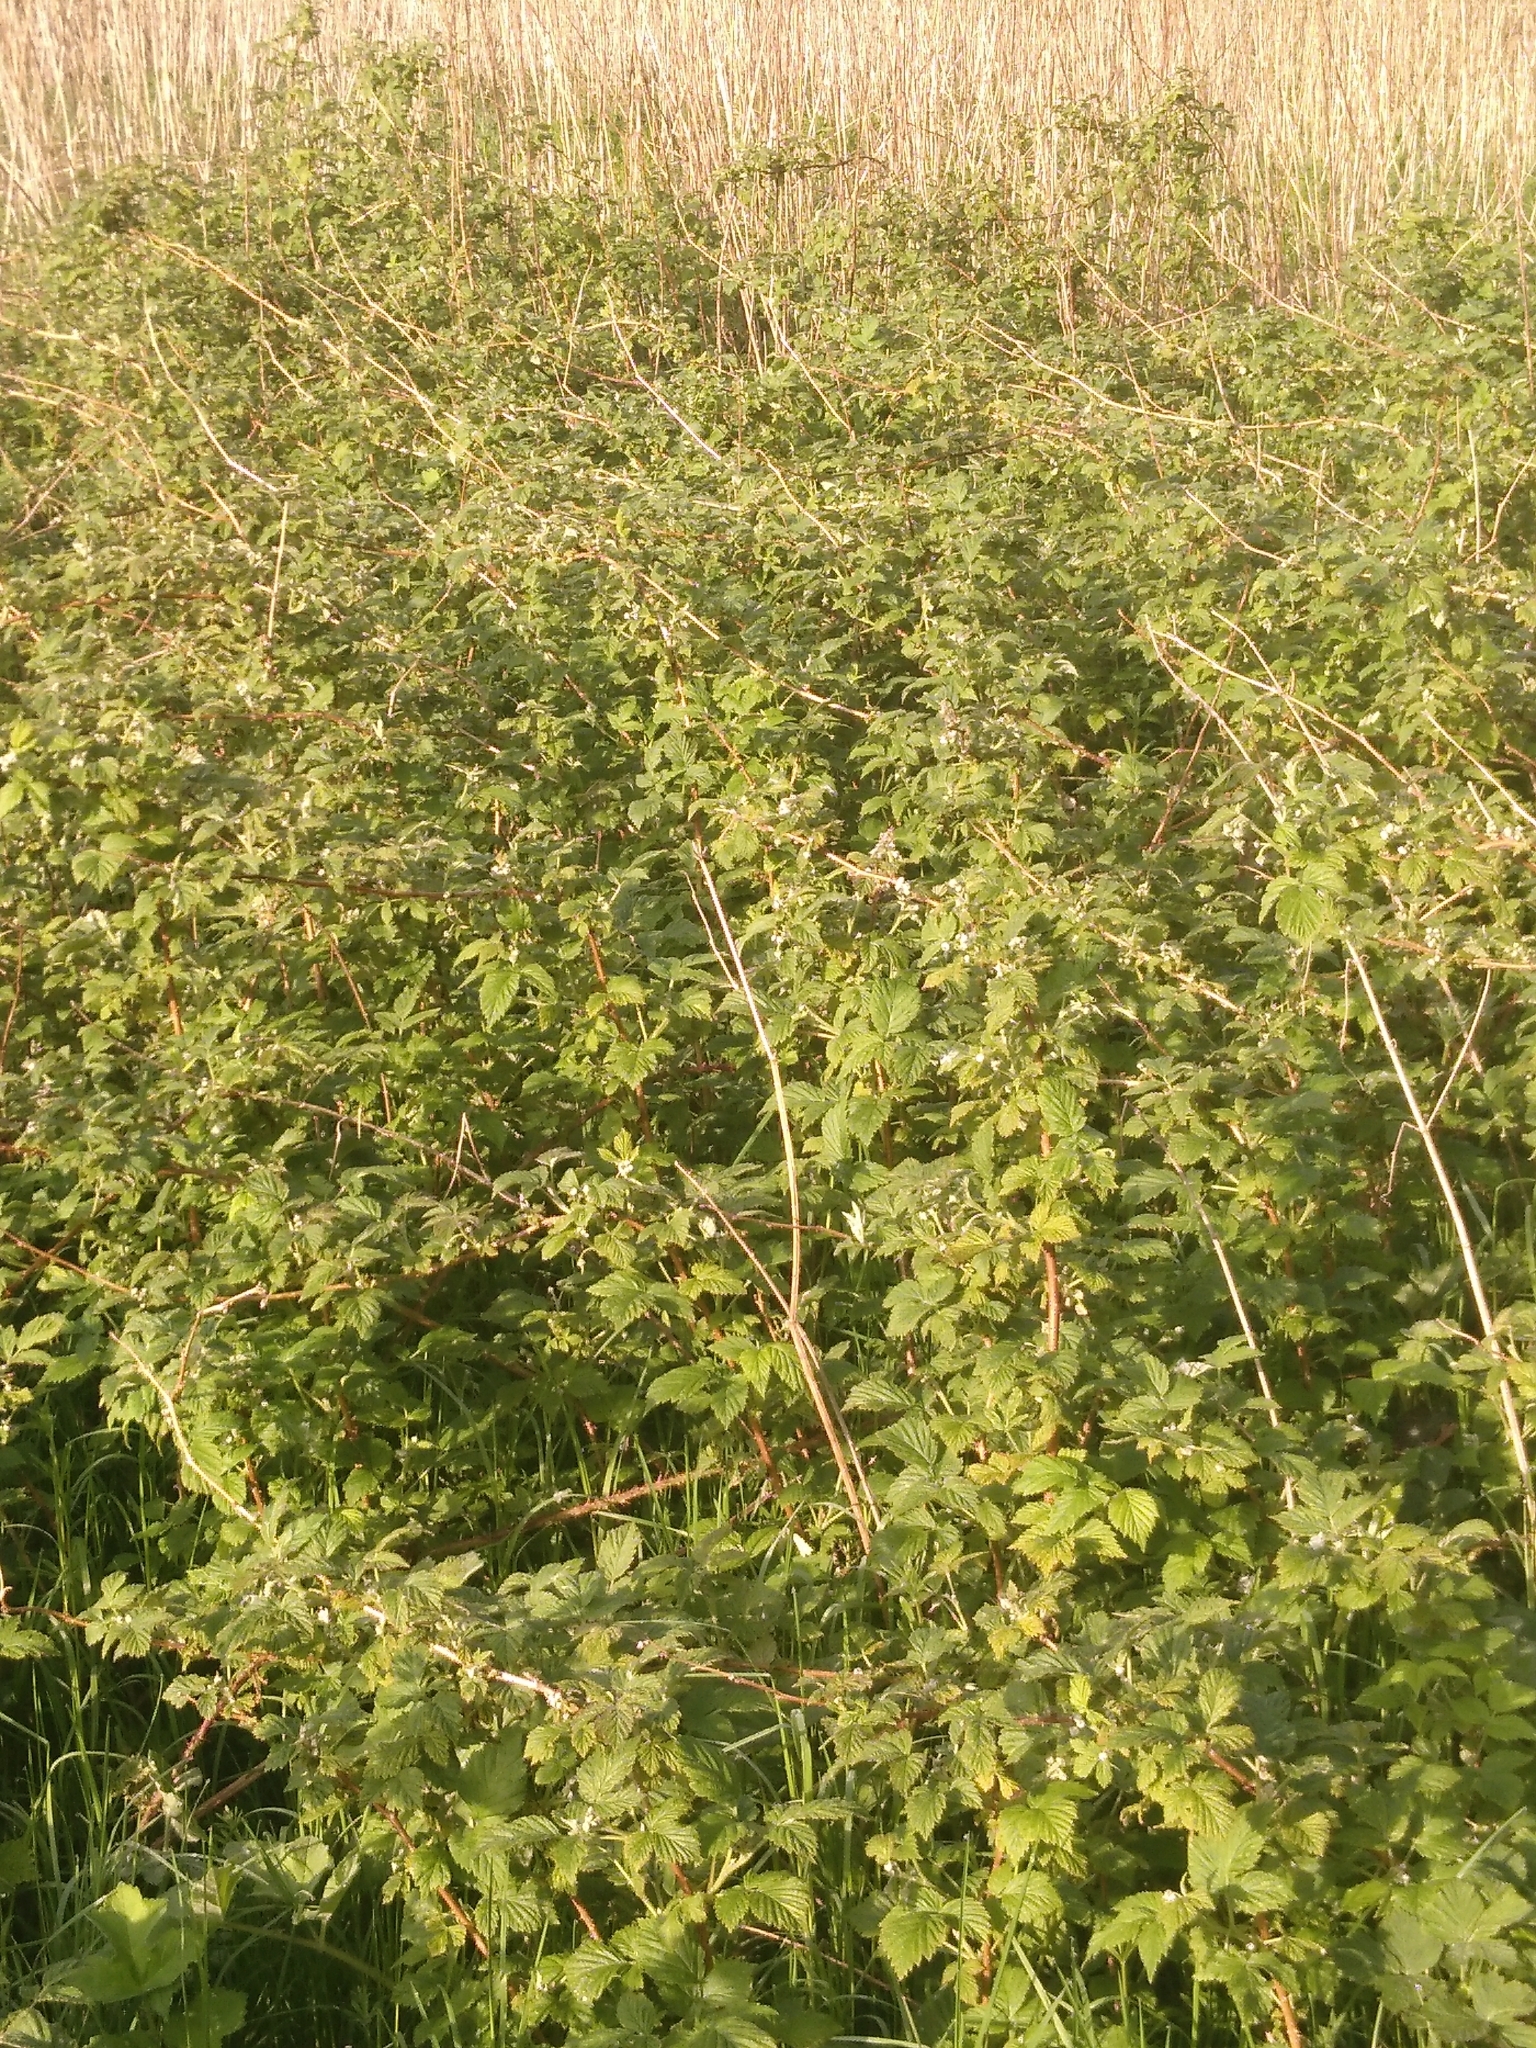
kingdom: Plantae
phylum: Tracheophyta
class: Magnoliopsida
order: Rosales
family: Rosaceae
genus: Rubus
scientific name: Rubus idaeus
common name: Raspberry
